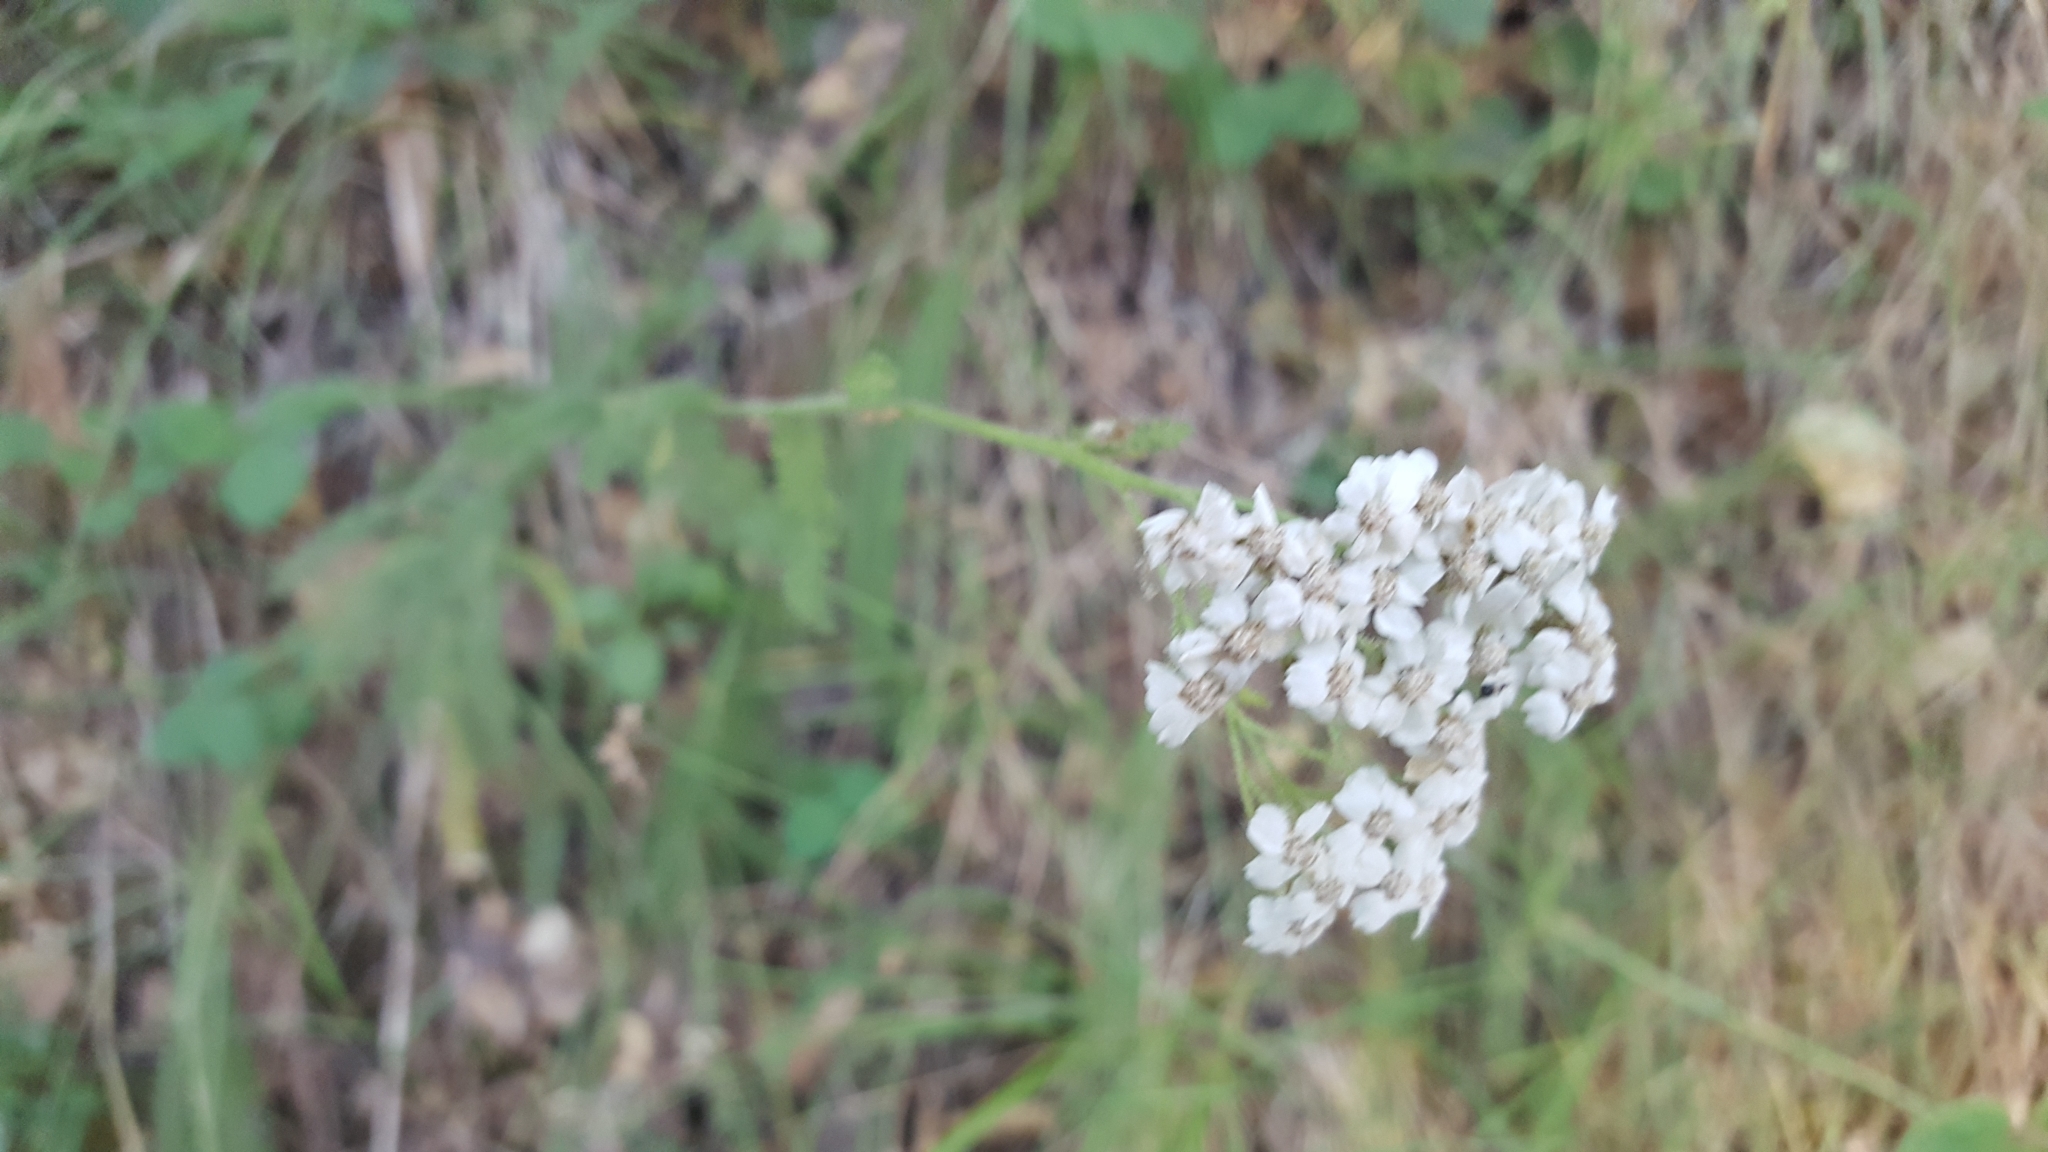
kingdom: Plantae
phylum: Tracheophyta
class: Magnoliopsida
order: Asterales
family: Asteraceae
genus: Achillea
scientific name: Achillea millefolium
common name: Yarrow
